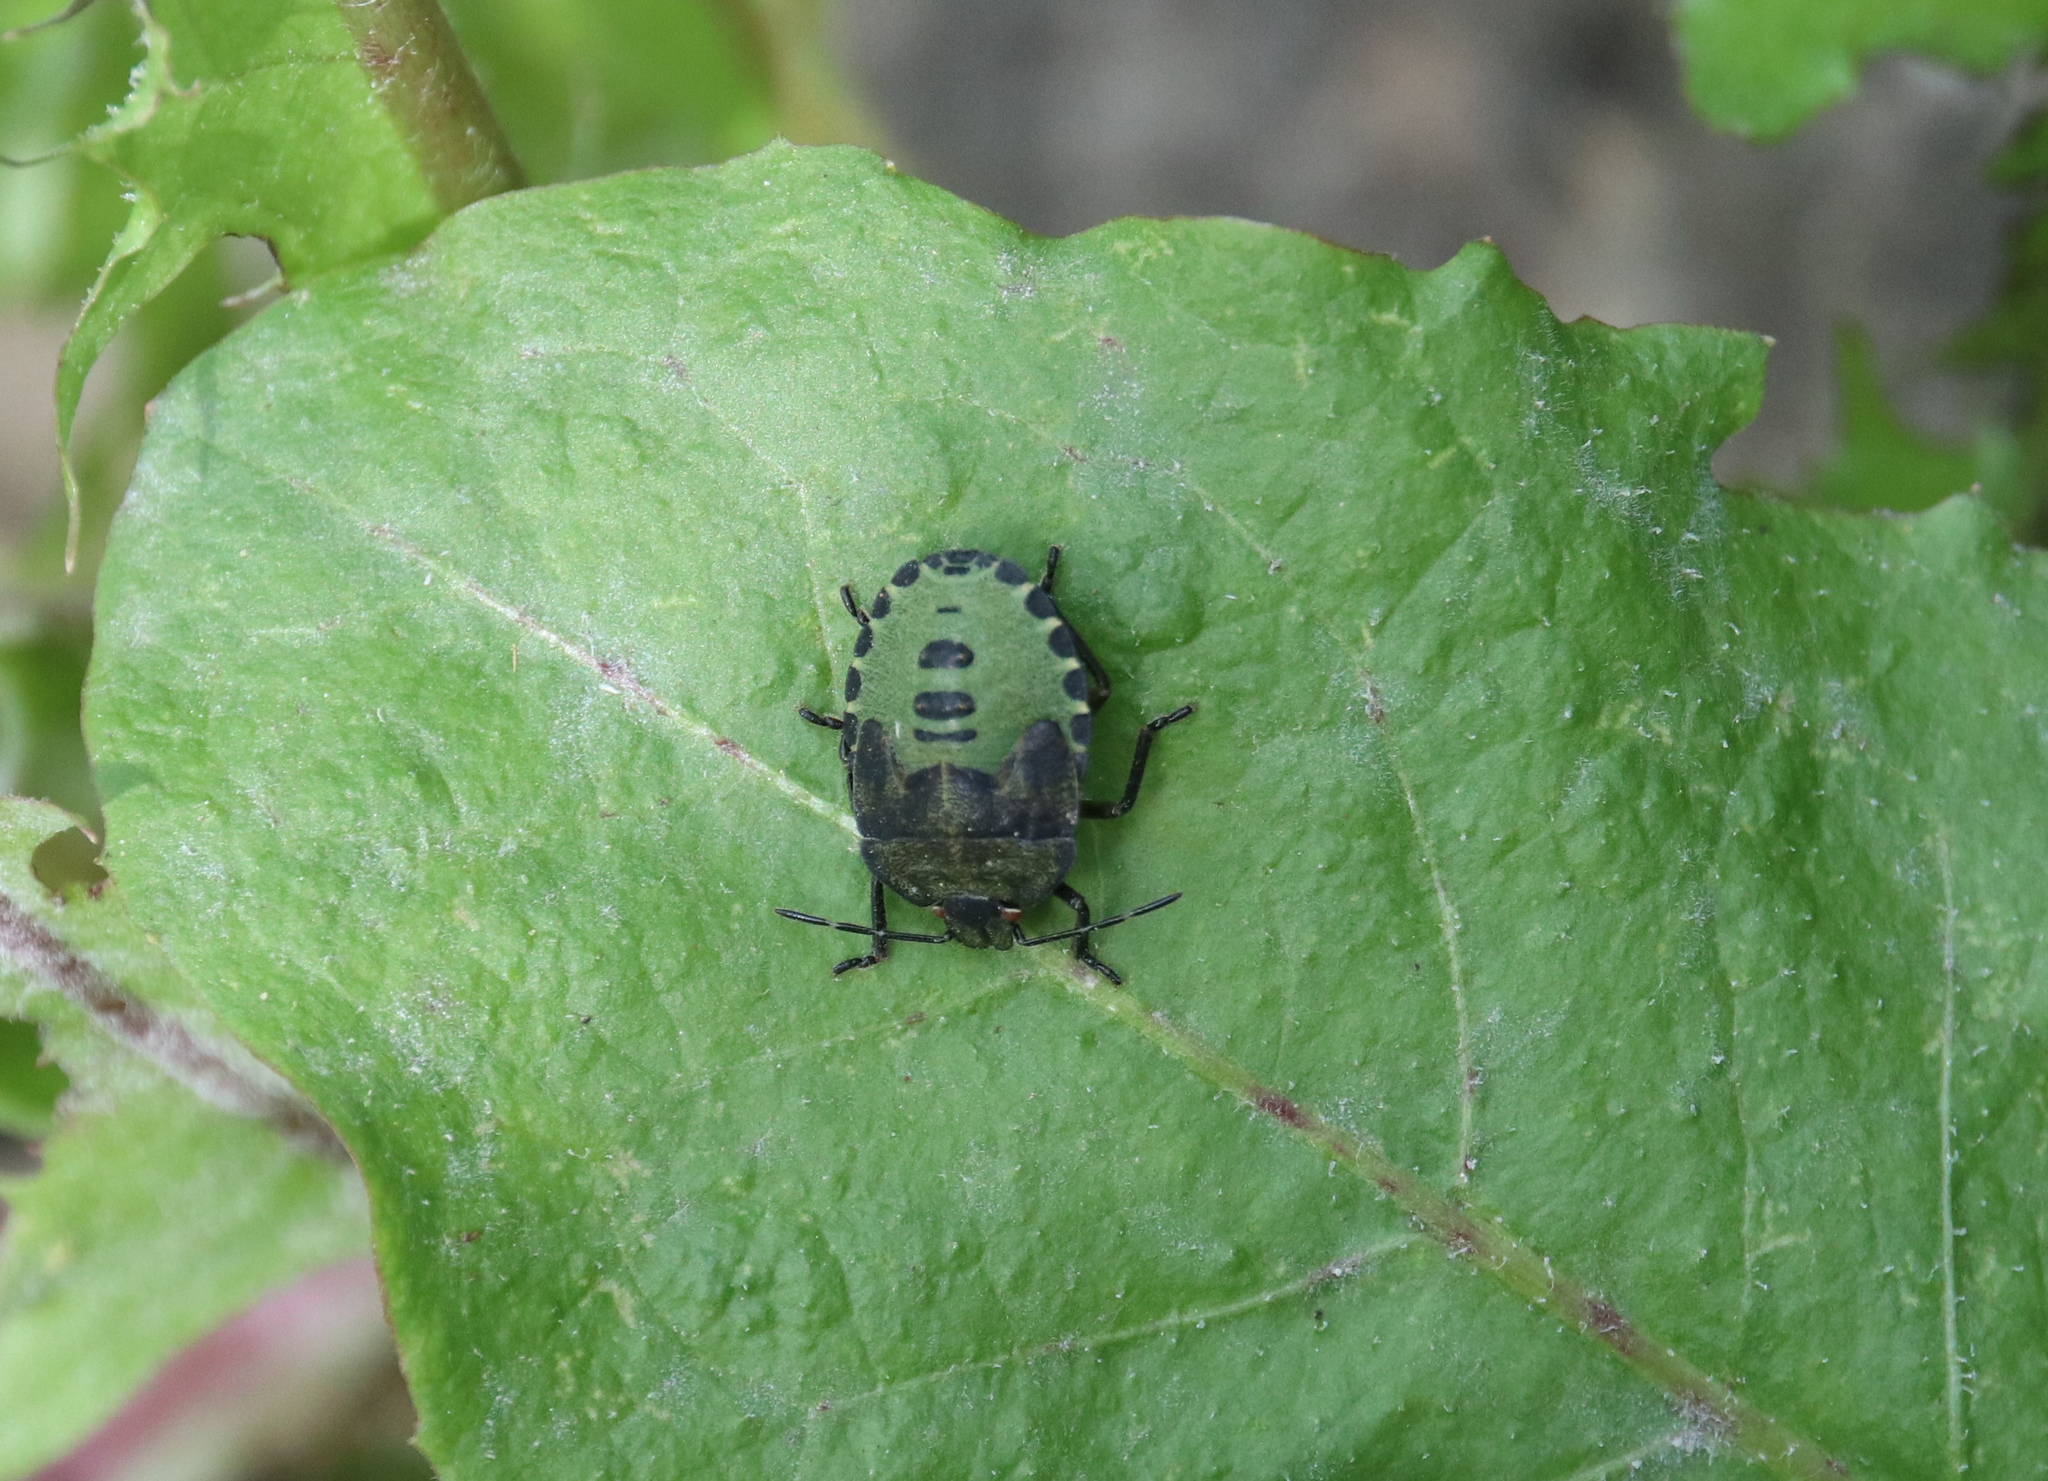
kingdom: Animalia
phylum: Arthropoda
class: Insecta
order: Hemiptera
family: Pentatomidae
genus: Palomena
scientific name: Palomena prasina
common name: Green shieldbug
